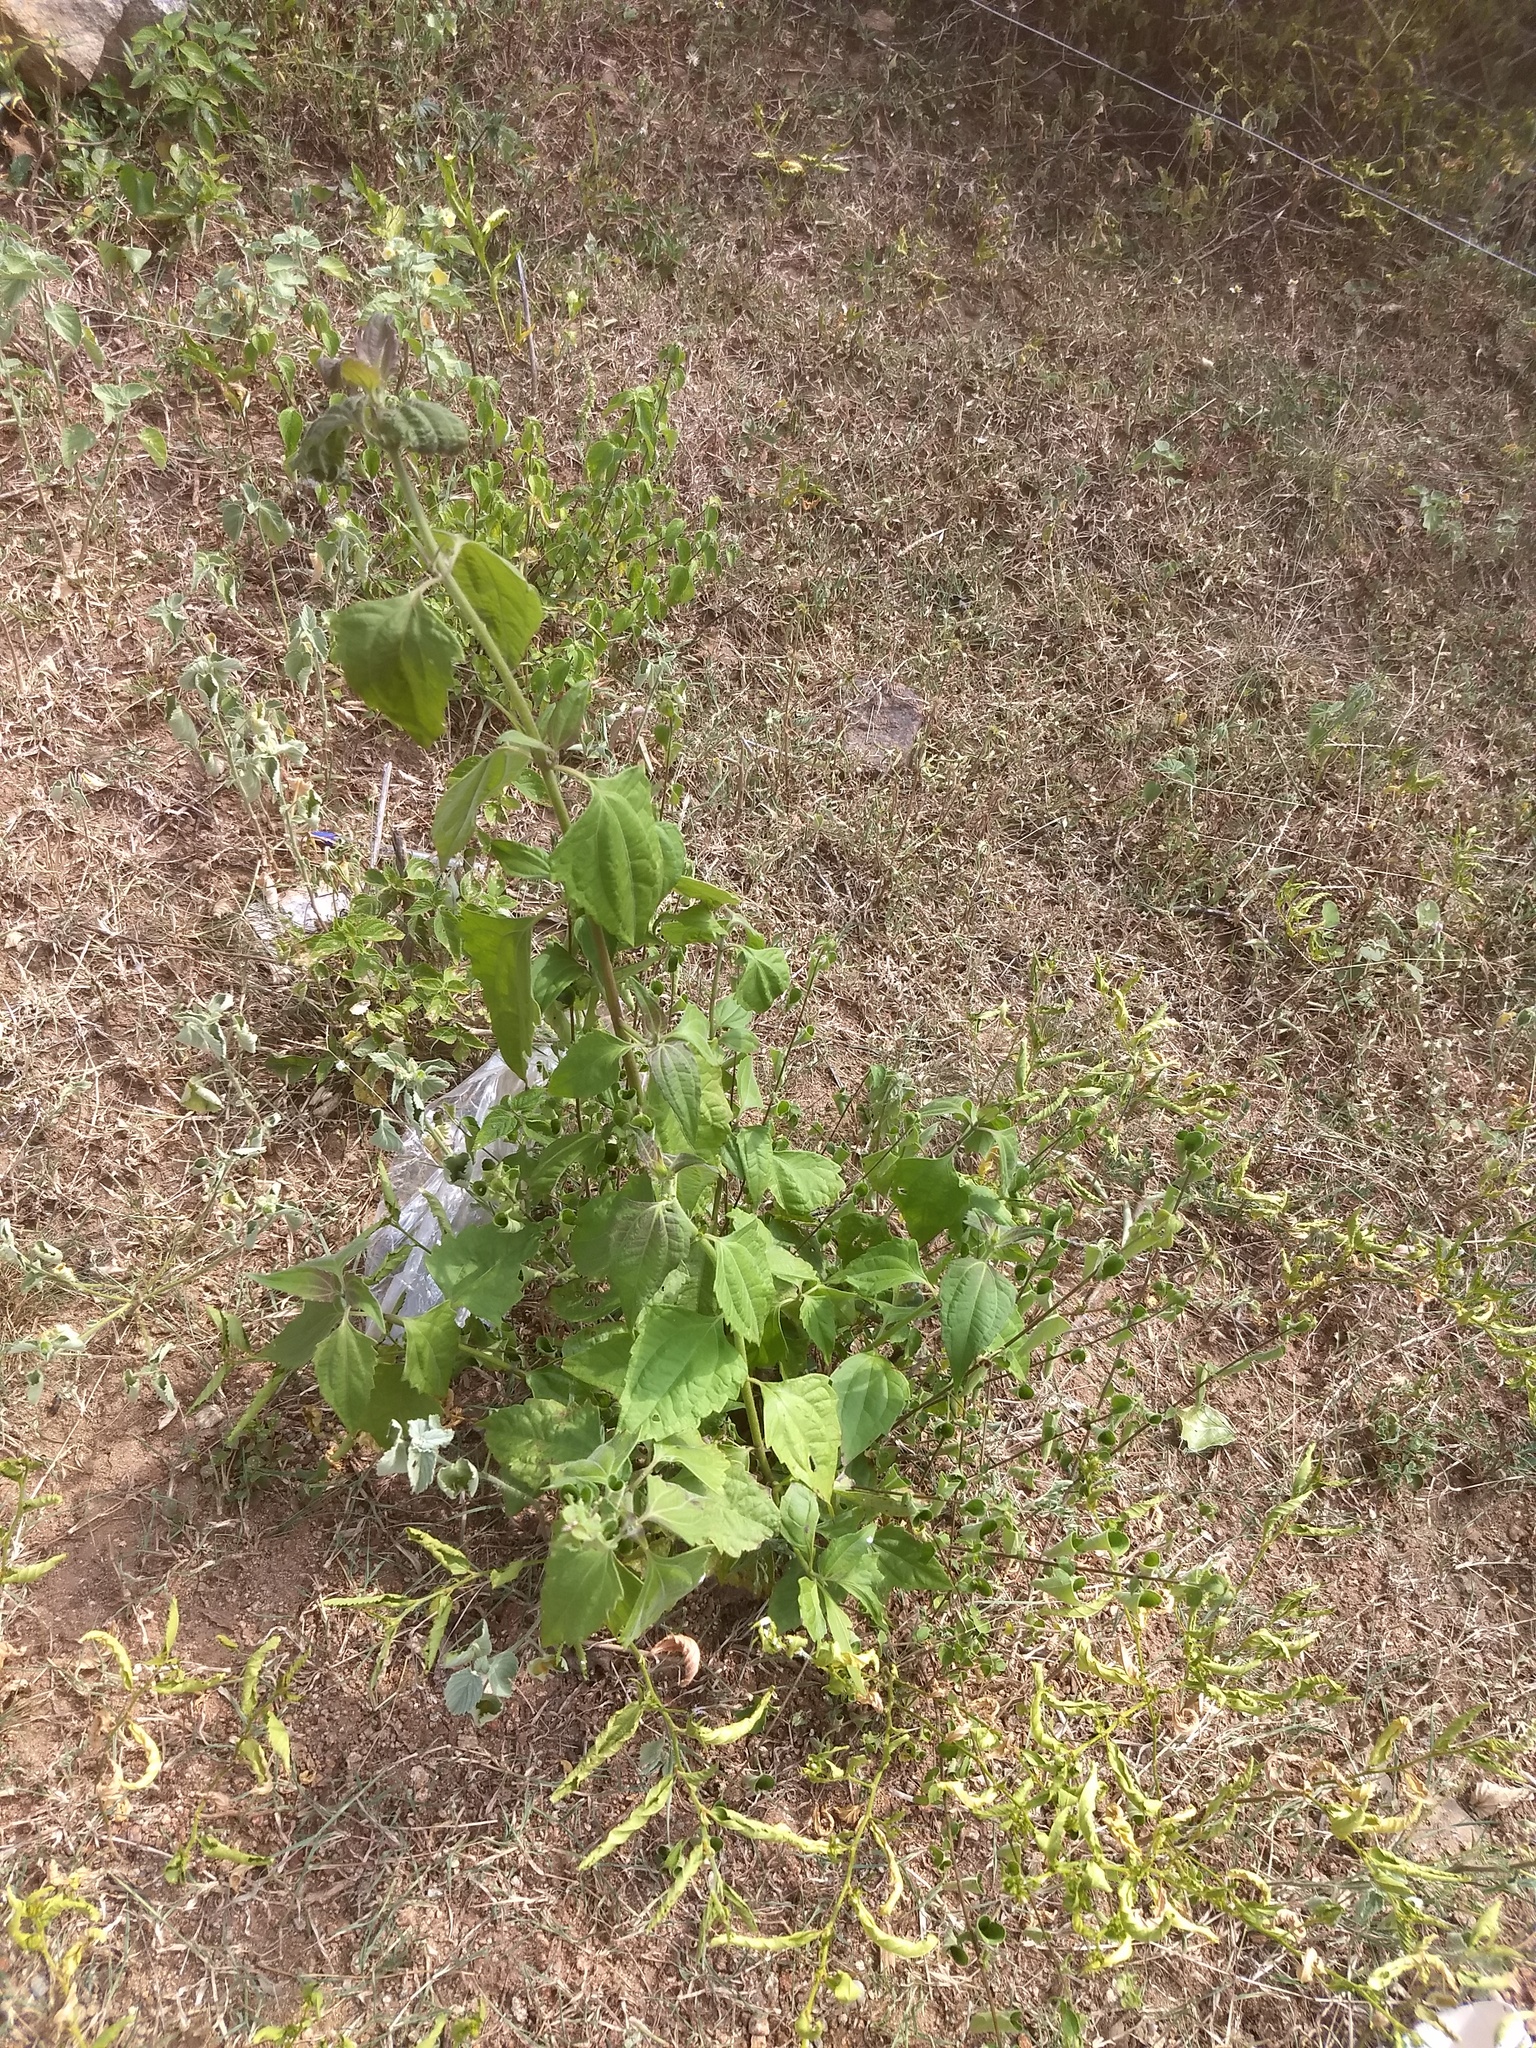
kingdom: Plantae
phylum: Tracheophyta
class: Magnoliopsida
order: Asterales
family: Asteraceae
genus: Chromolaena
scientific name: Chromolaena odorata
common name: Siamweed
